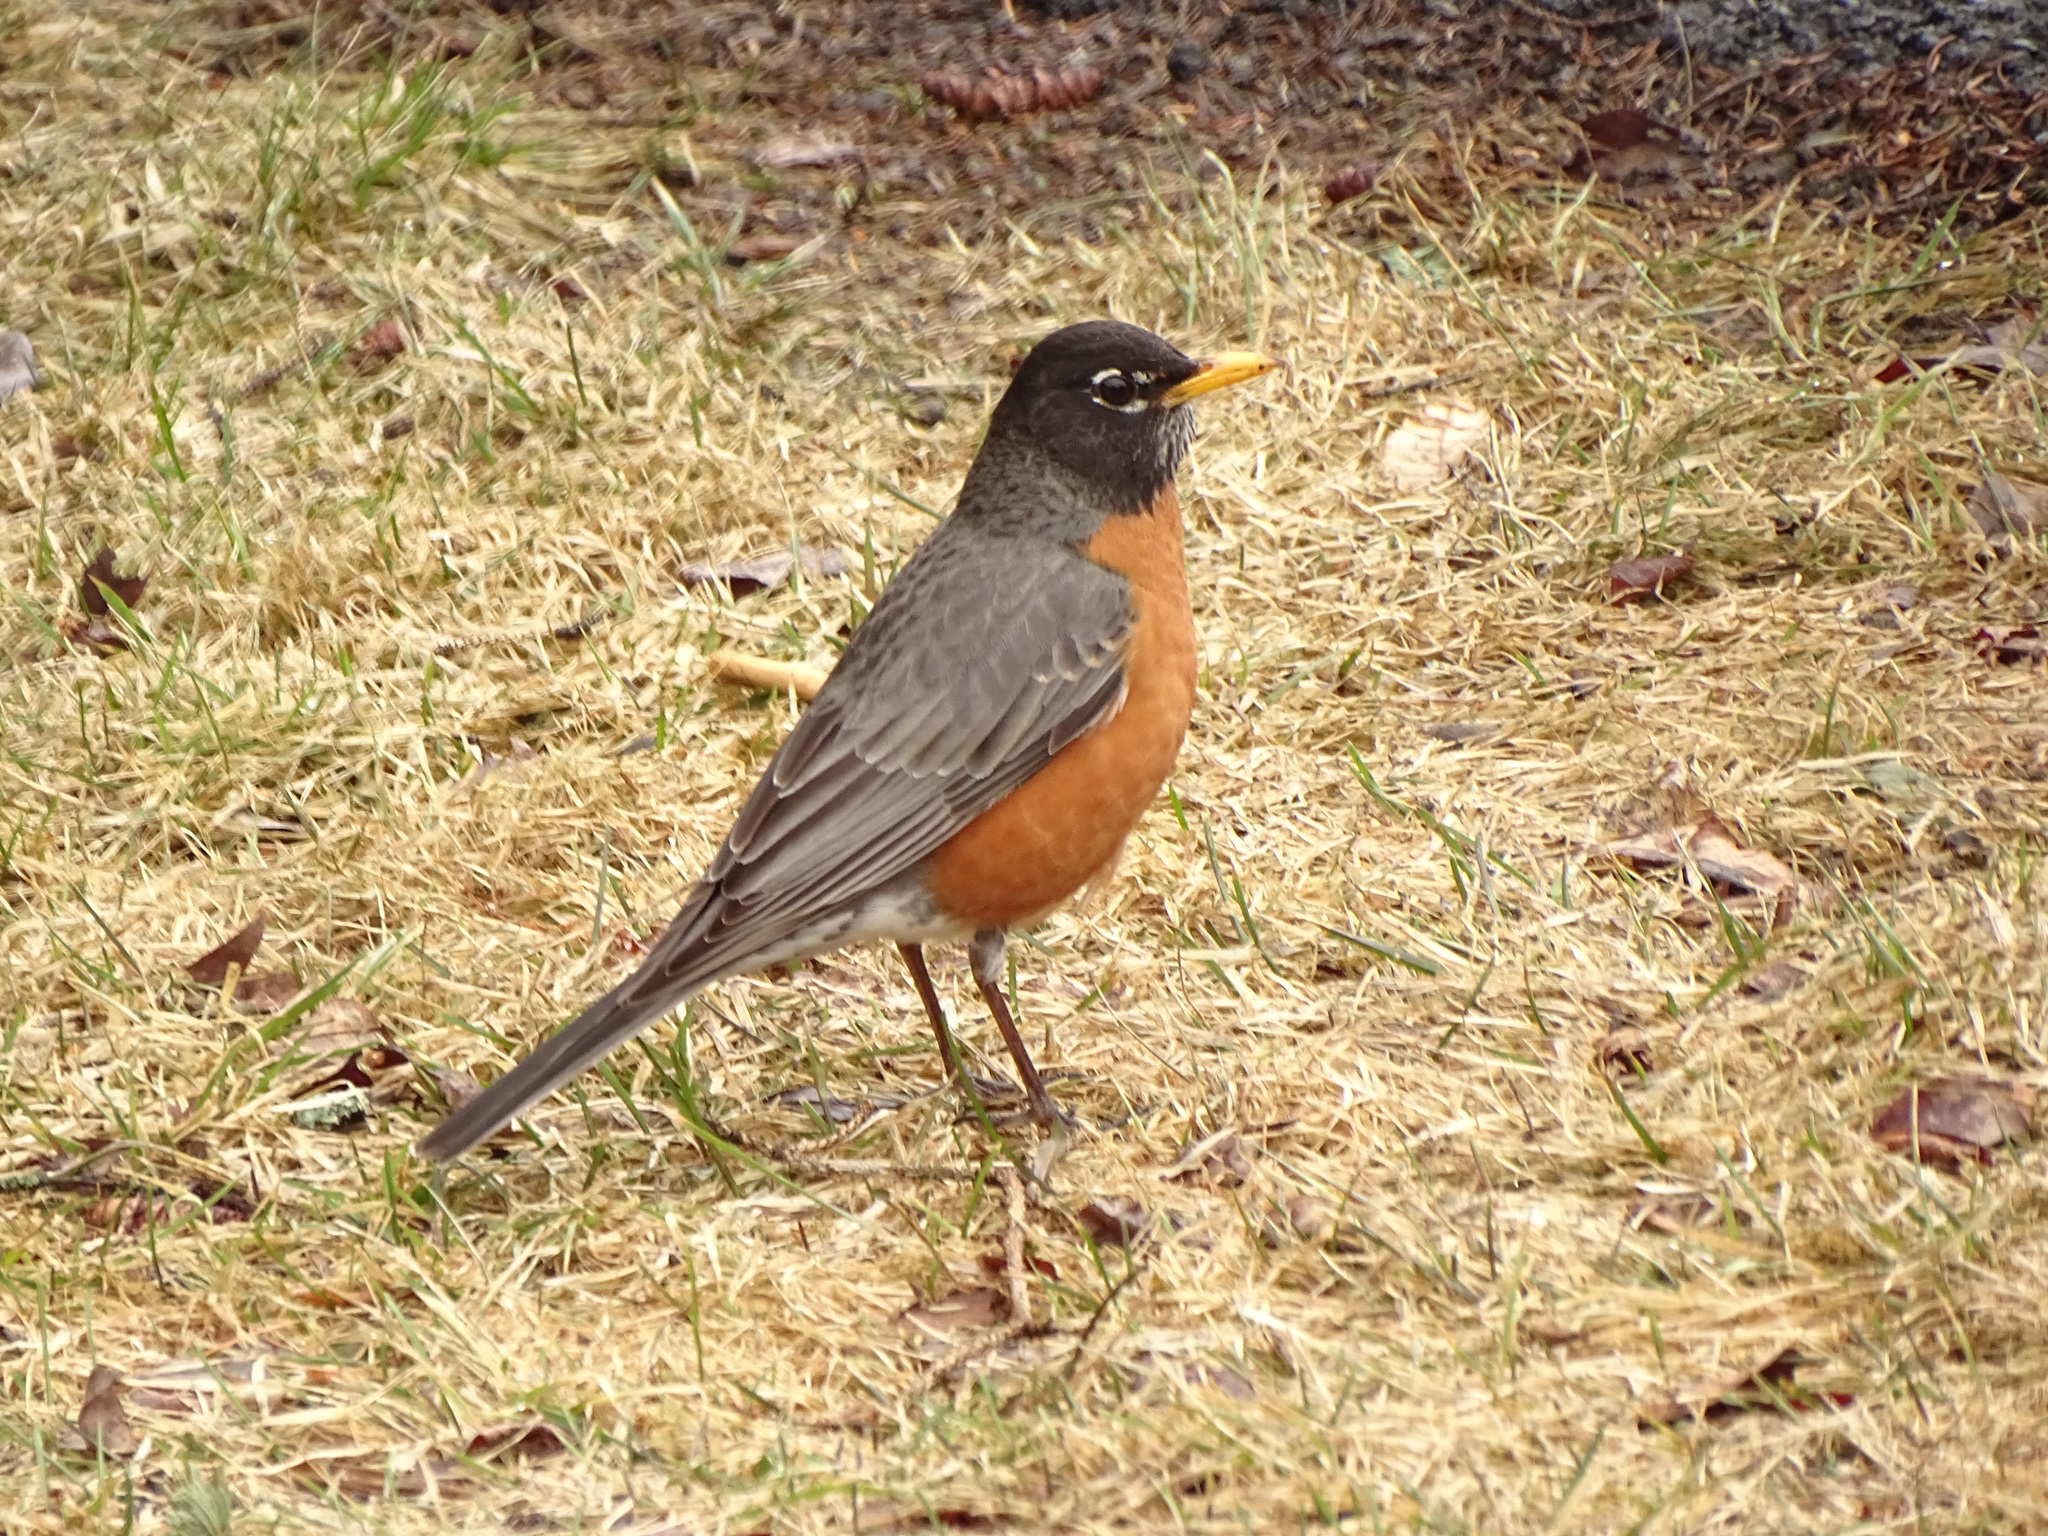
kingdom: Animalia
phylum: Chordata
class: Aves
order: Passeriformes
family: Turdidae
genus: Turdus
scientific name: Turdus migratorius
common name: American robin
